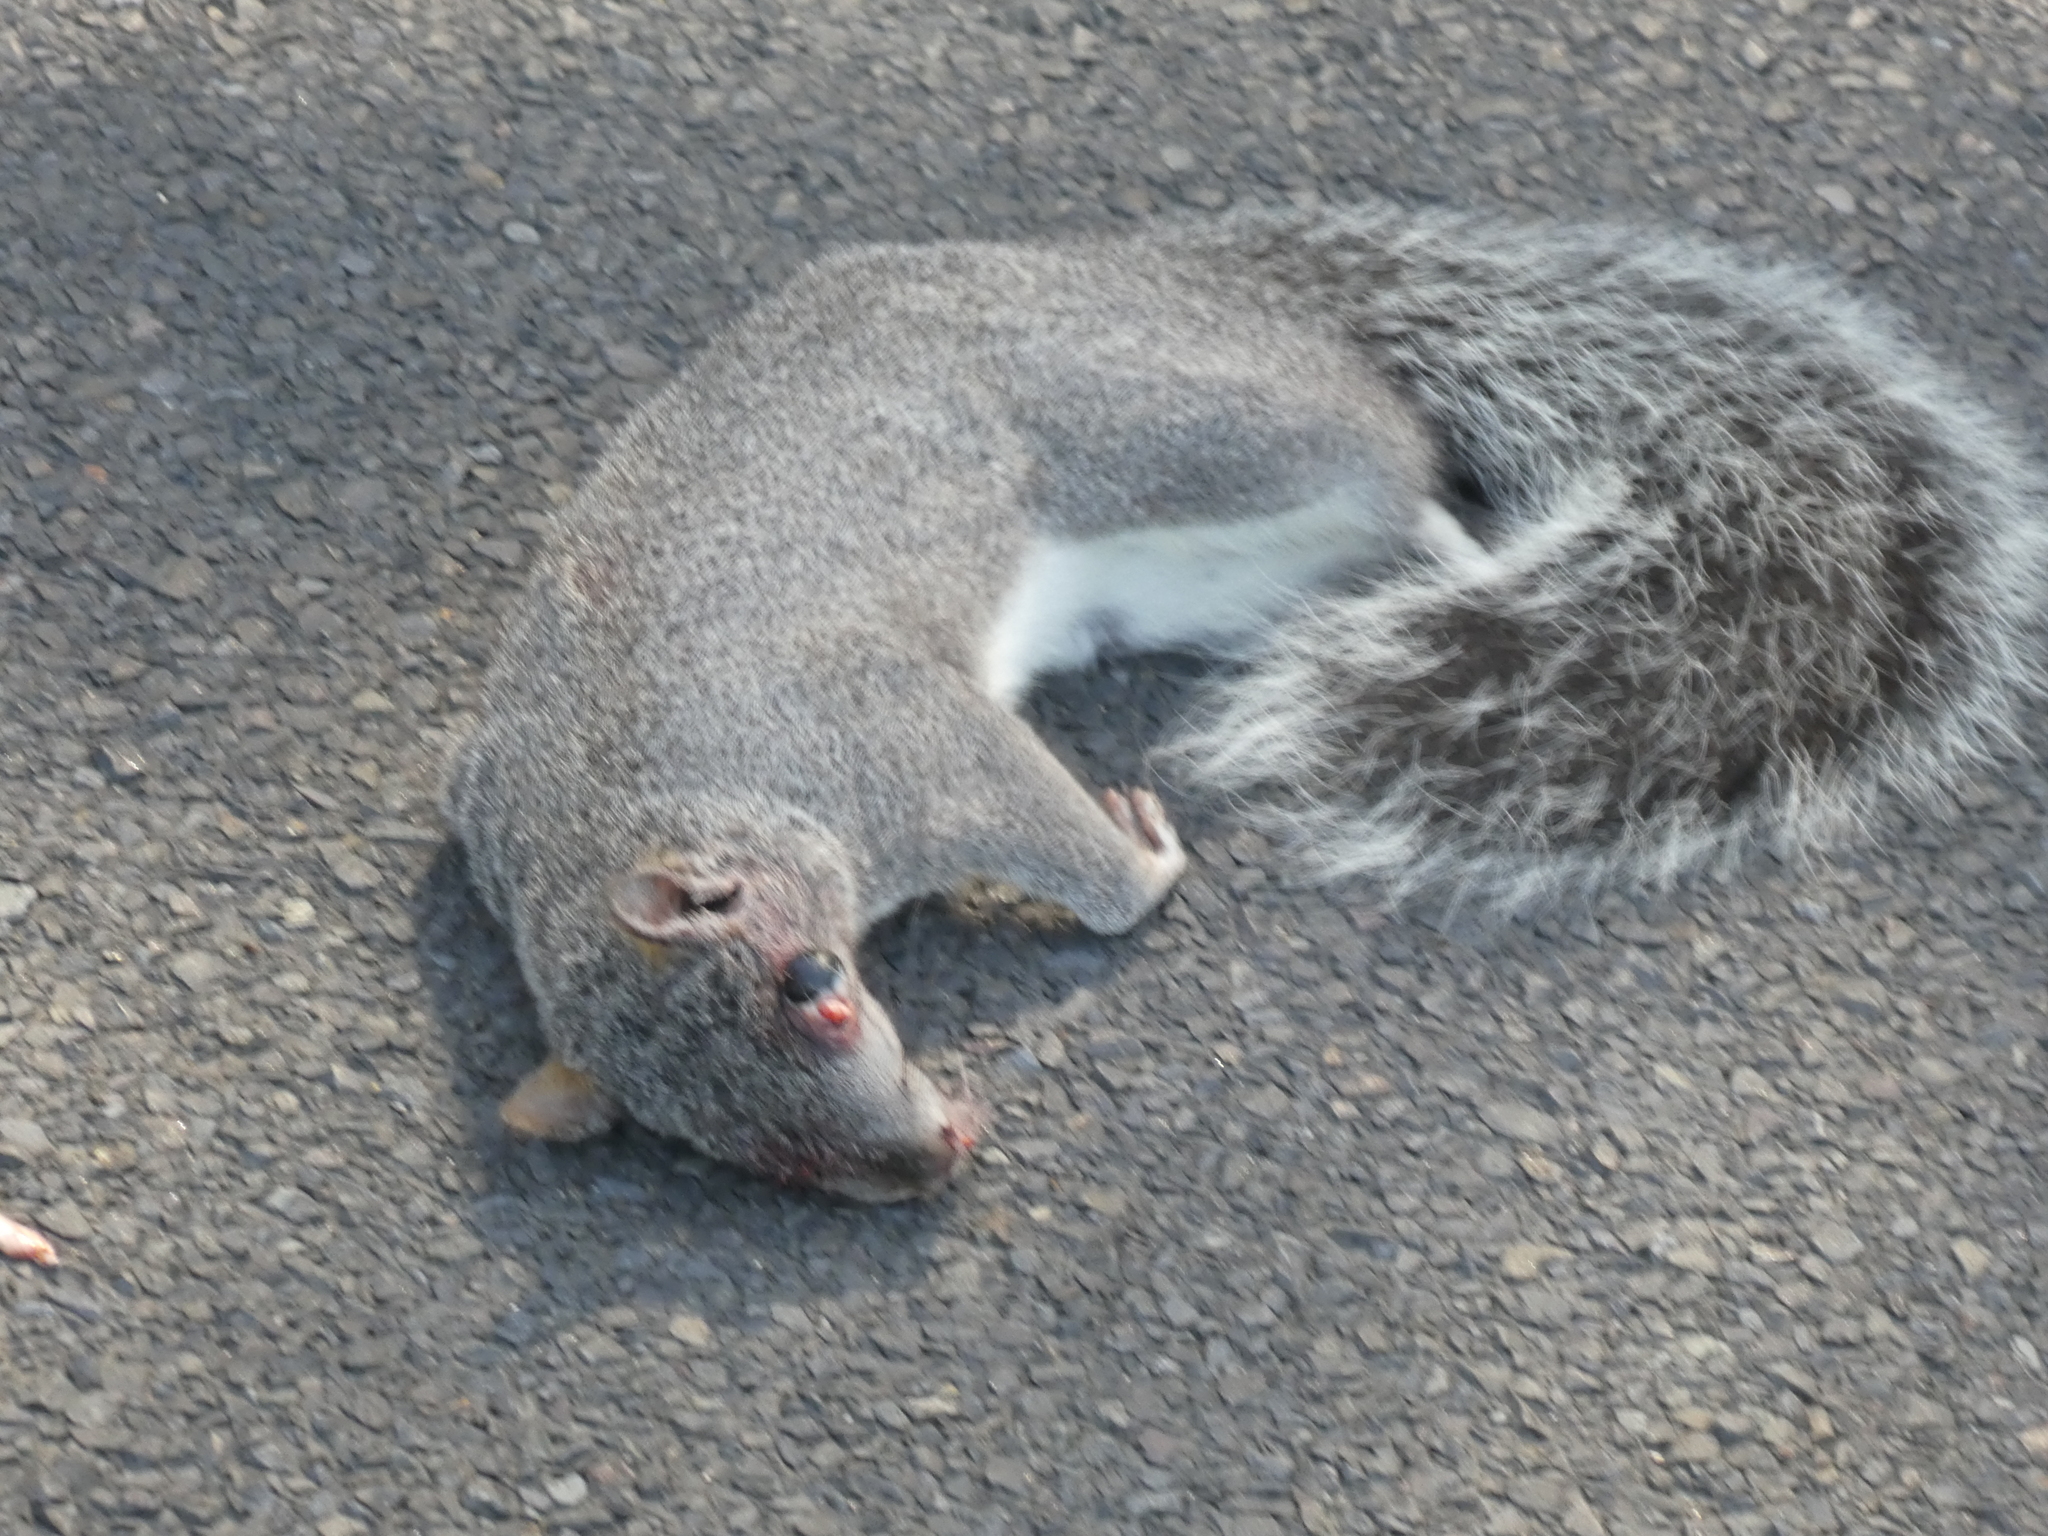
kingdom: Animalia
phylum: Chordata
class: Mammalia
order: Rodentia
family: Sciuridae
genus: Sciurus
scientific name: Sciurus griseus
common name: Western gray squirrel
